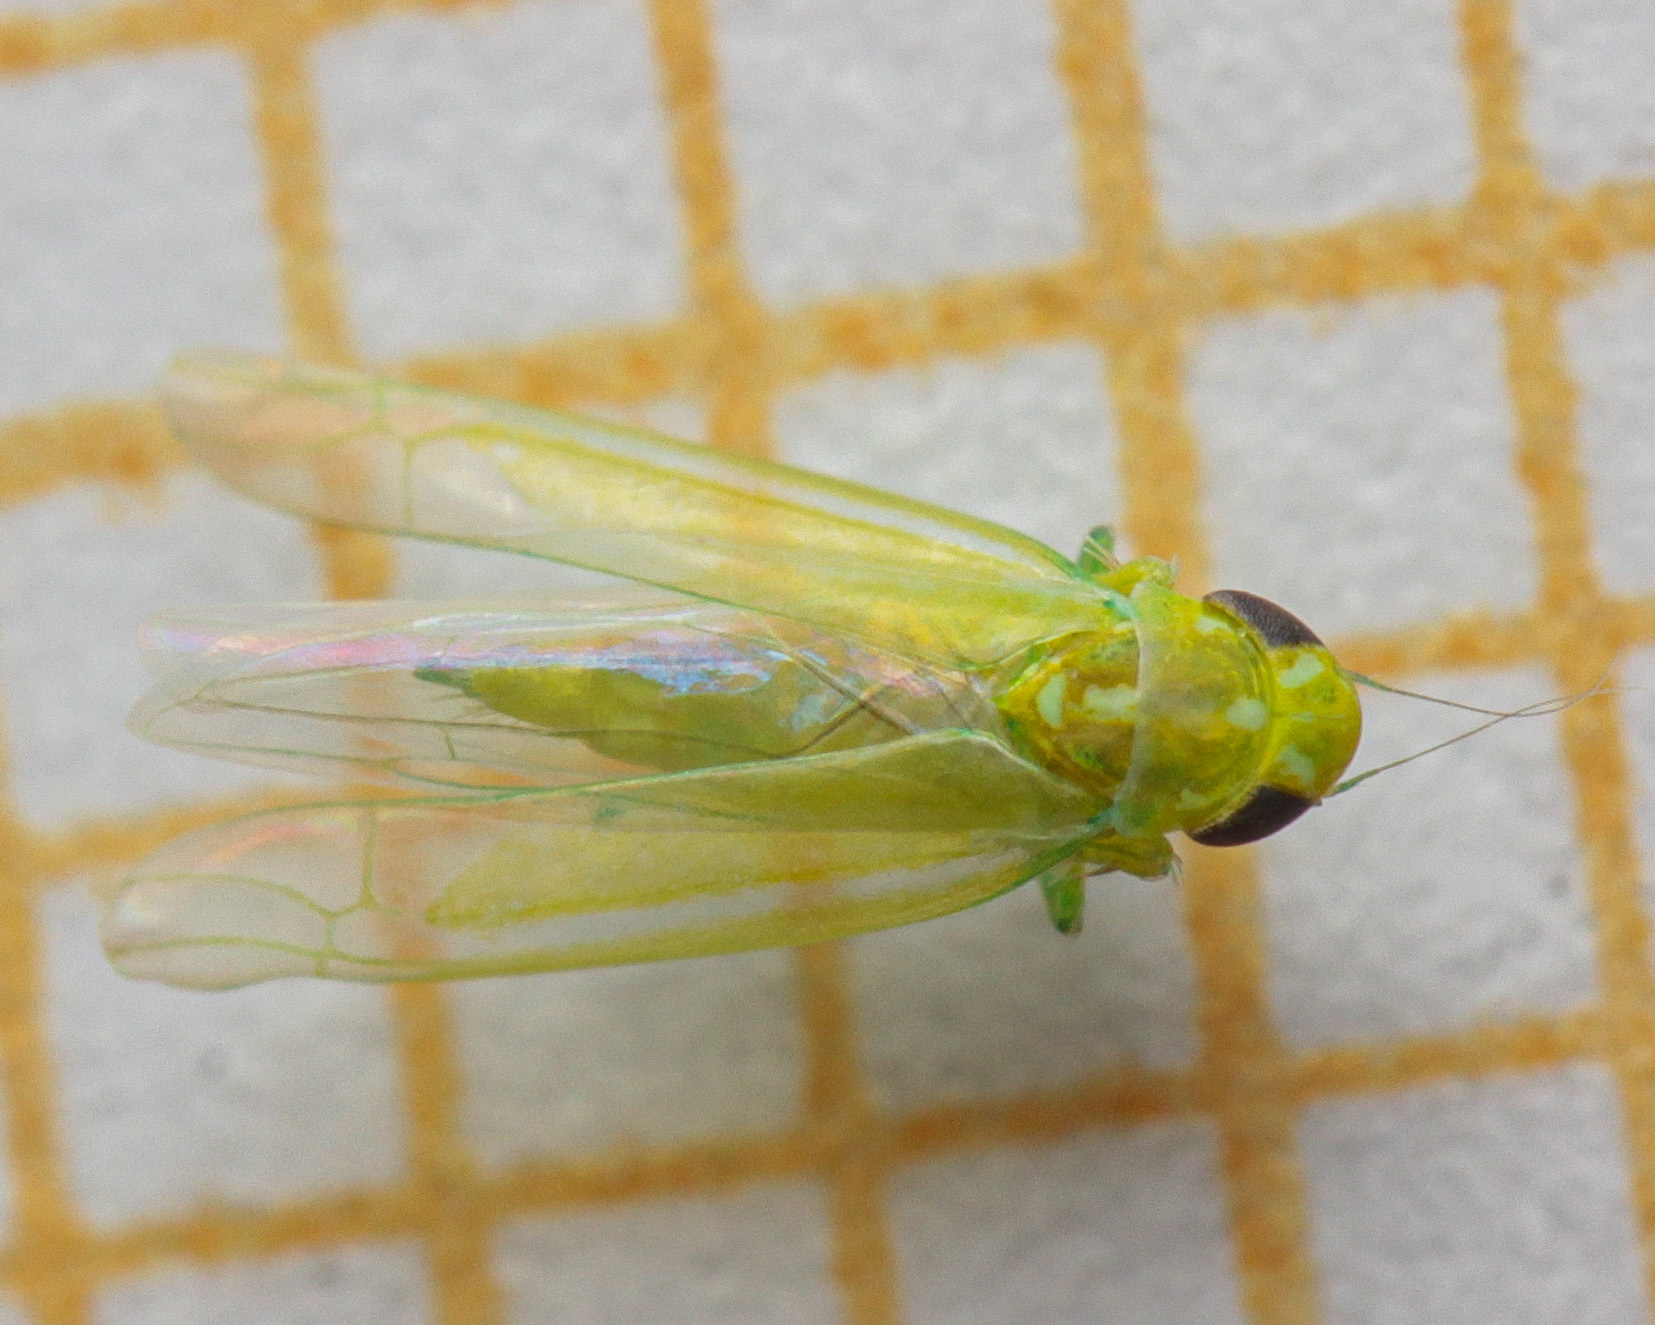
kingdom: Animalia
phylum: Arthropoda
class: Insecta
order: Hemiptera
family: Cicadellidae
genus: Hebata
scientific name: Hebata vitis
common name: The smaller green leafhopper
